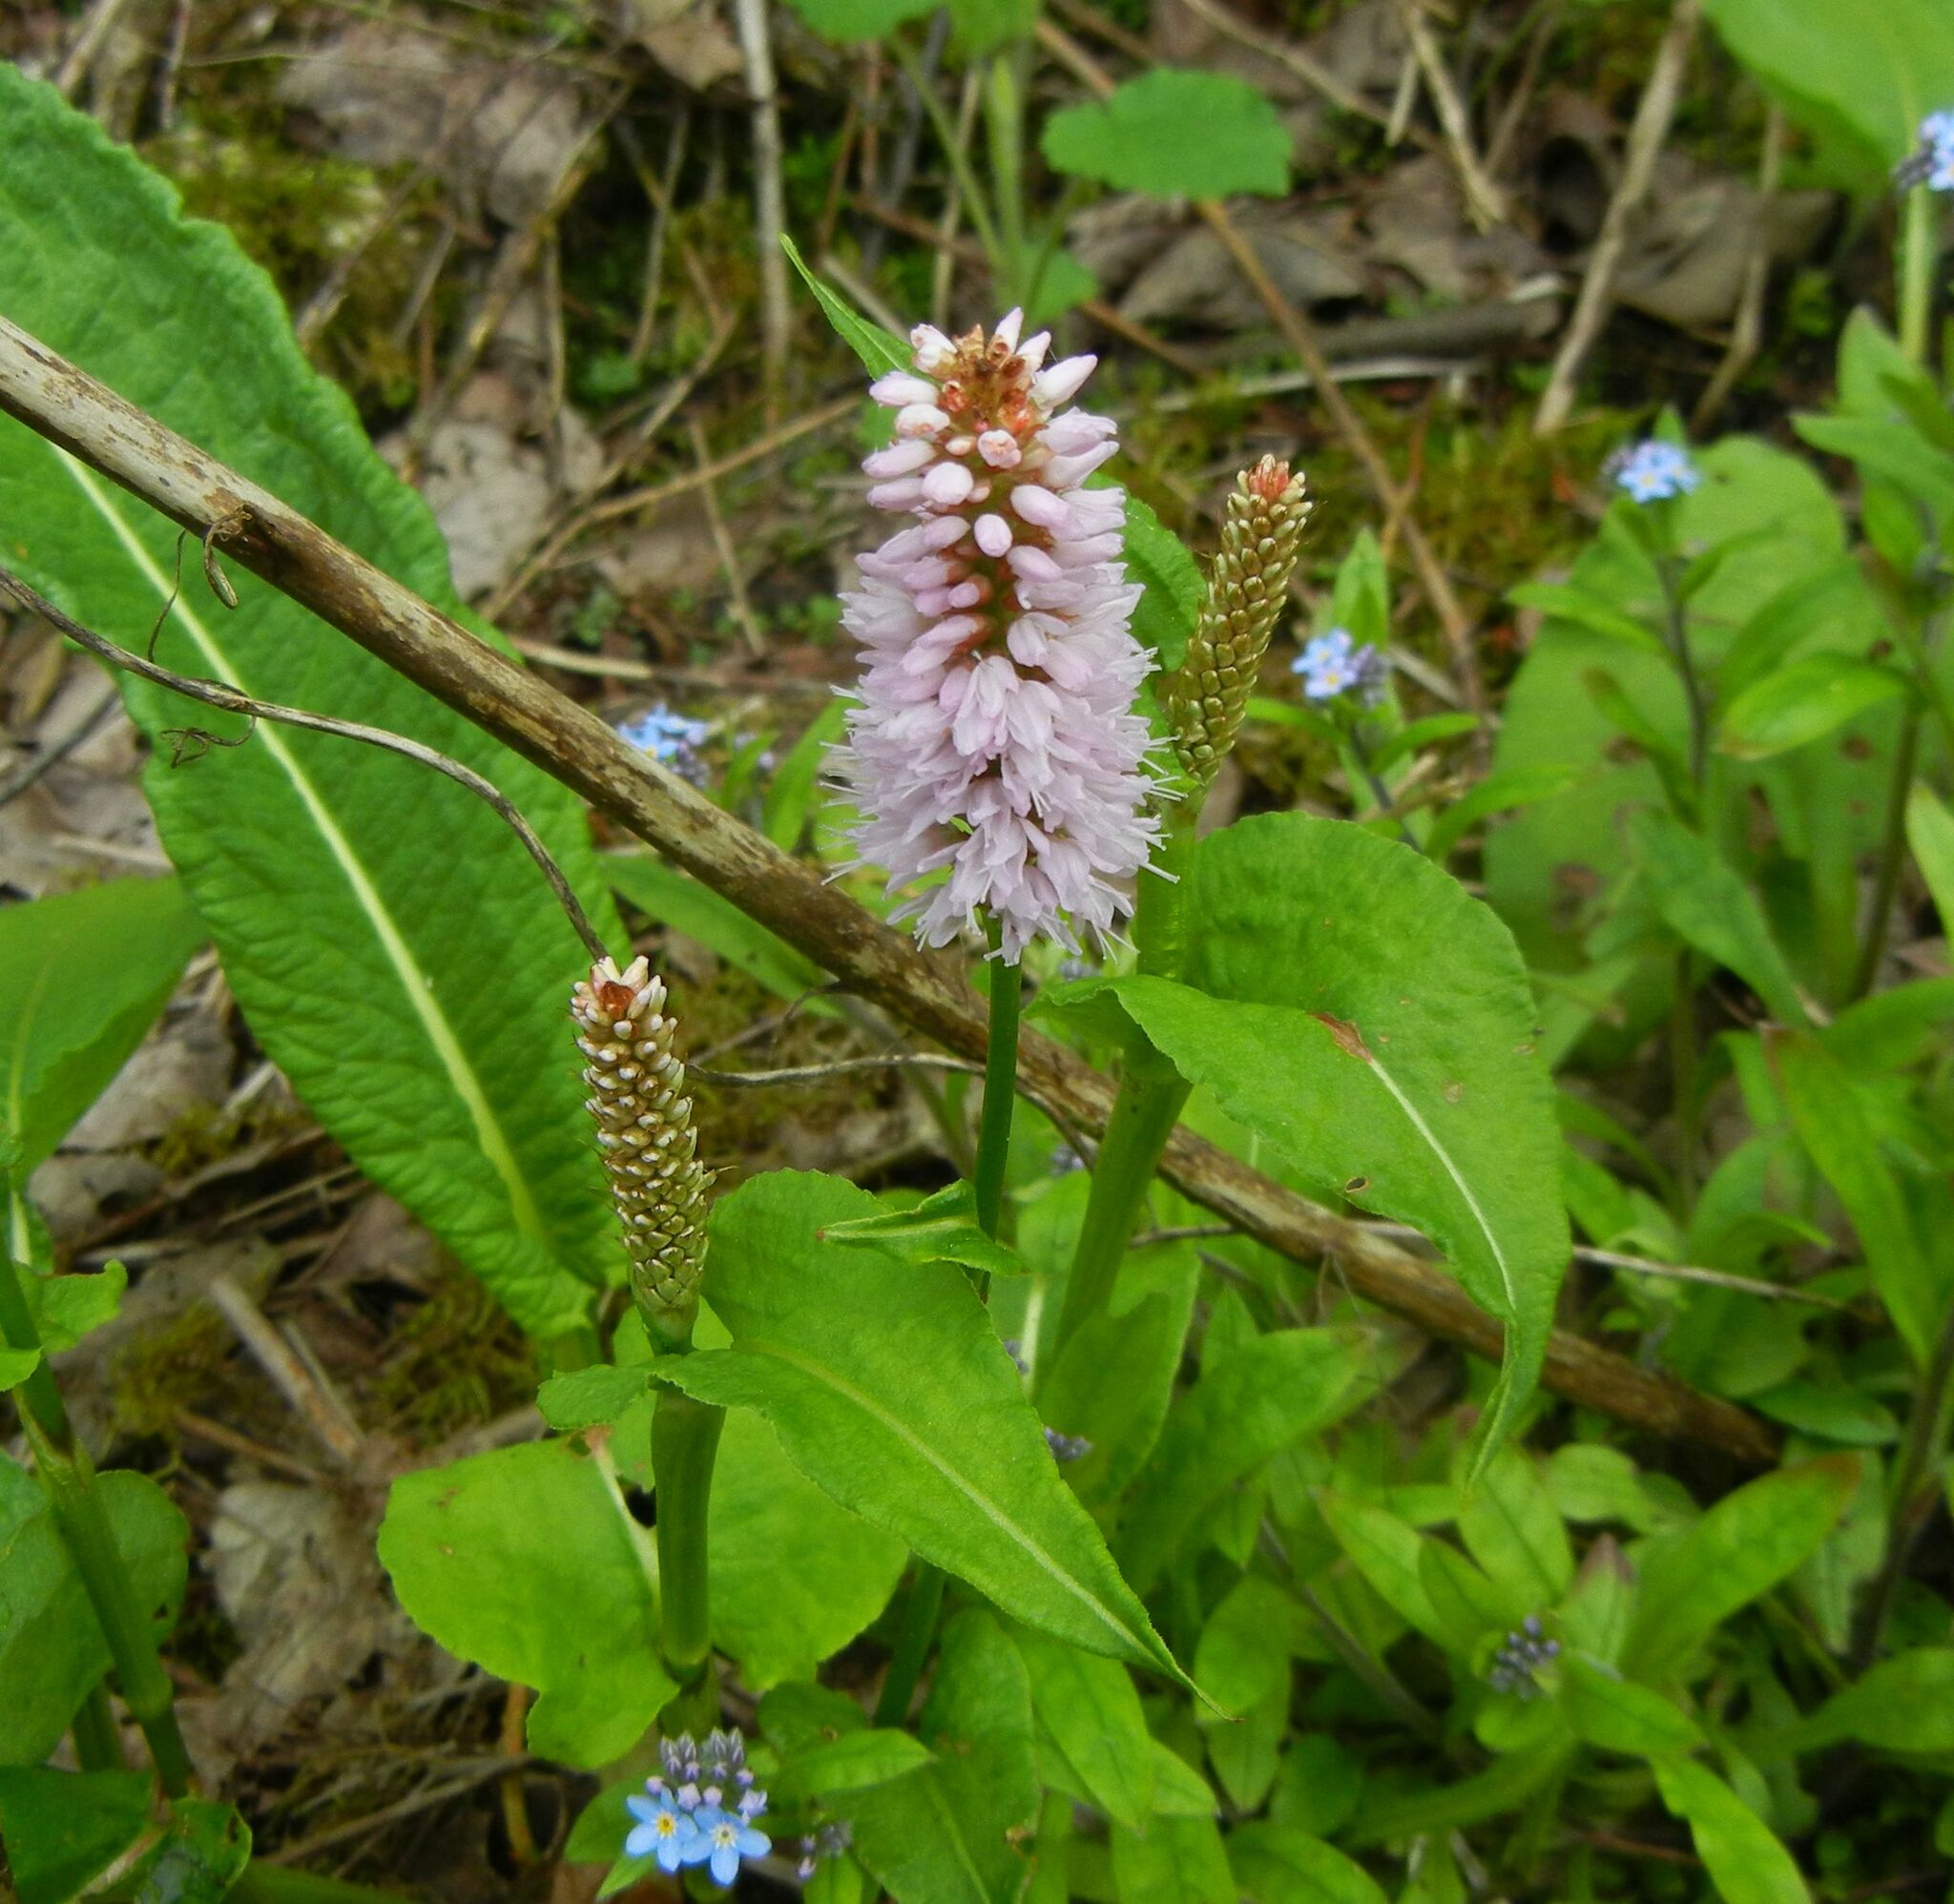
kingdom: Plantae
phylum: Tracheophyta
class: Magnoliopsida
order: Caryophyllales
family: Polygonaceae
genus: Bistorta
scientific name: Bistorta officinalis
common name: Common bistort
